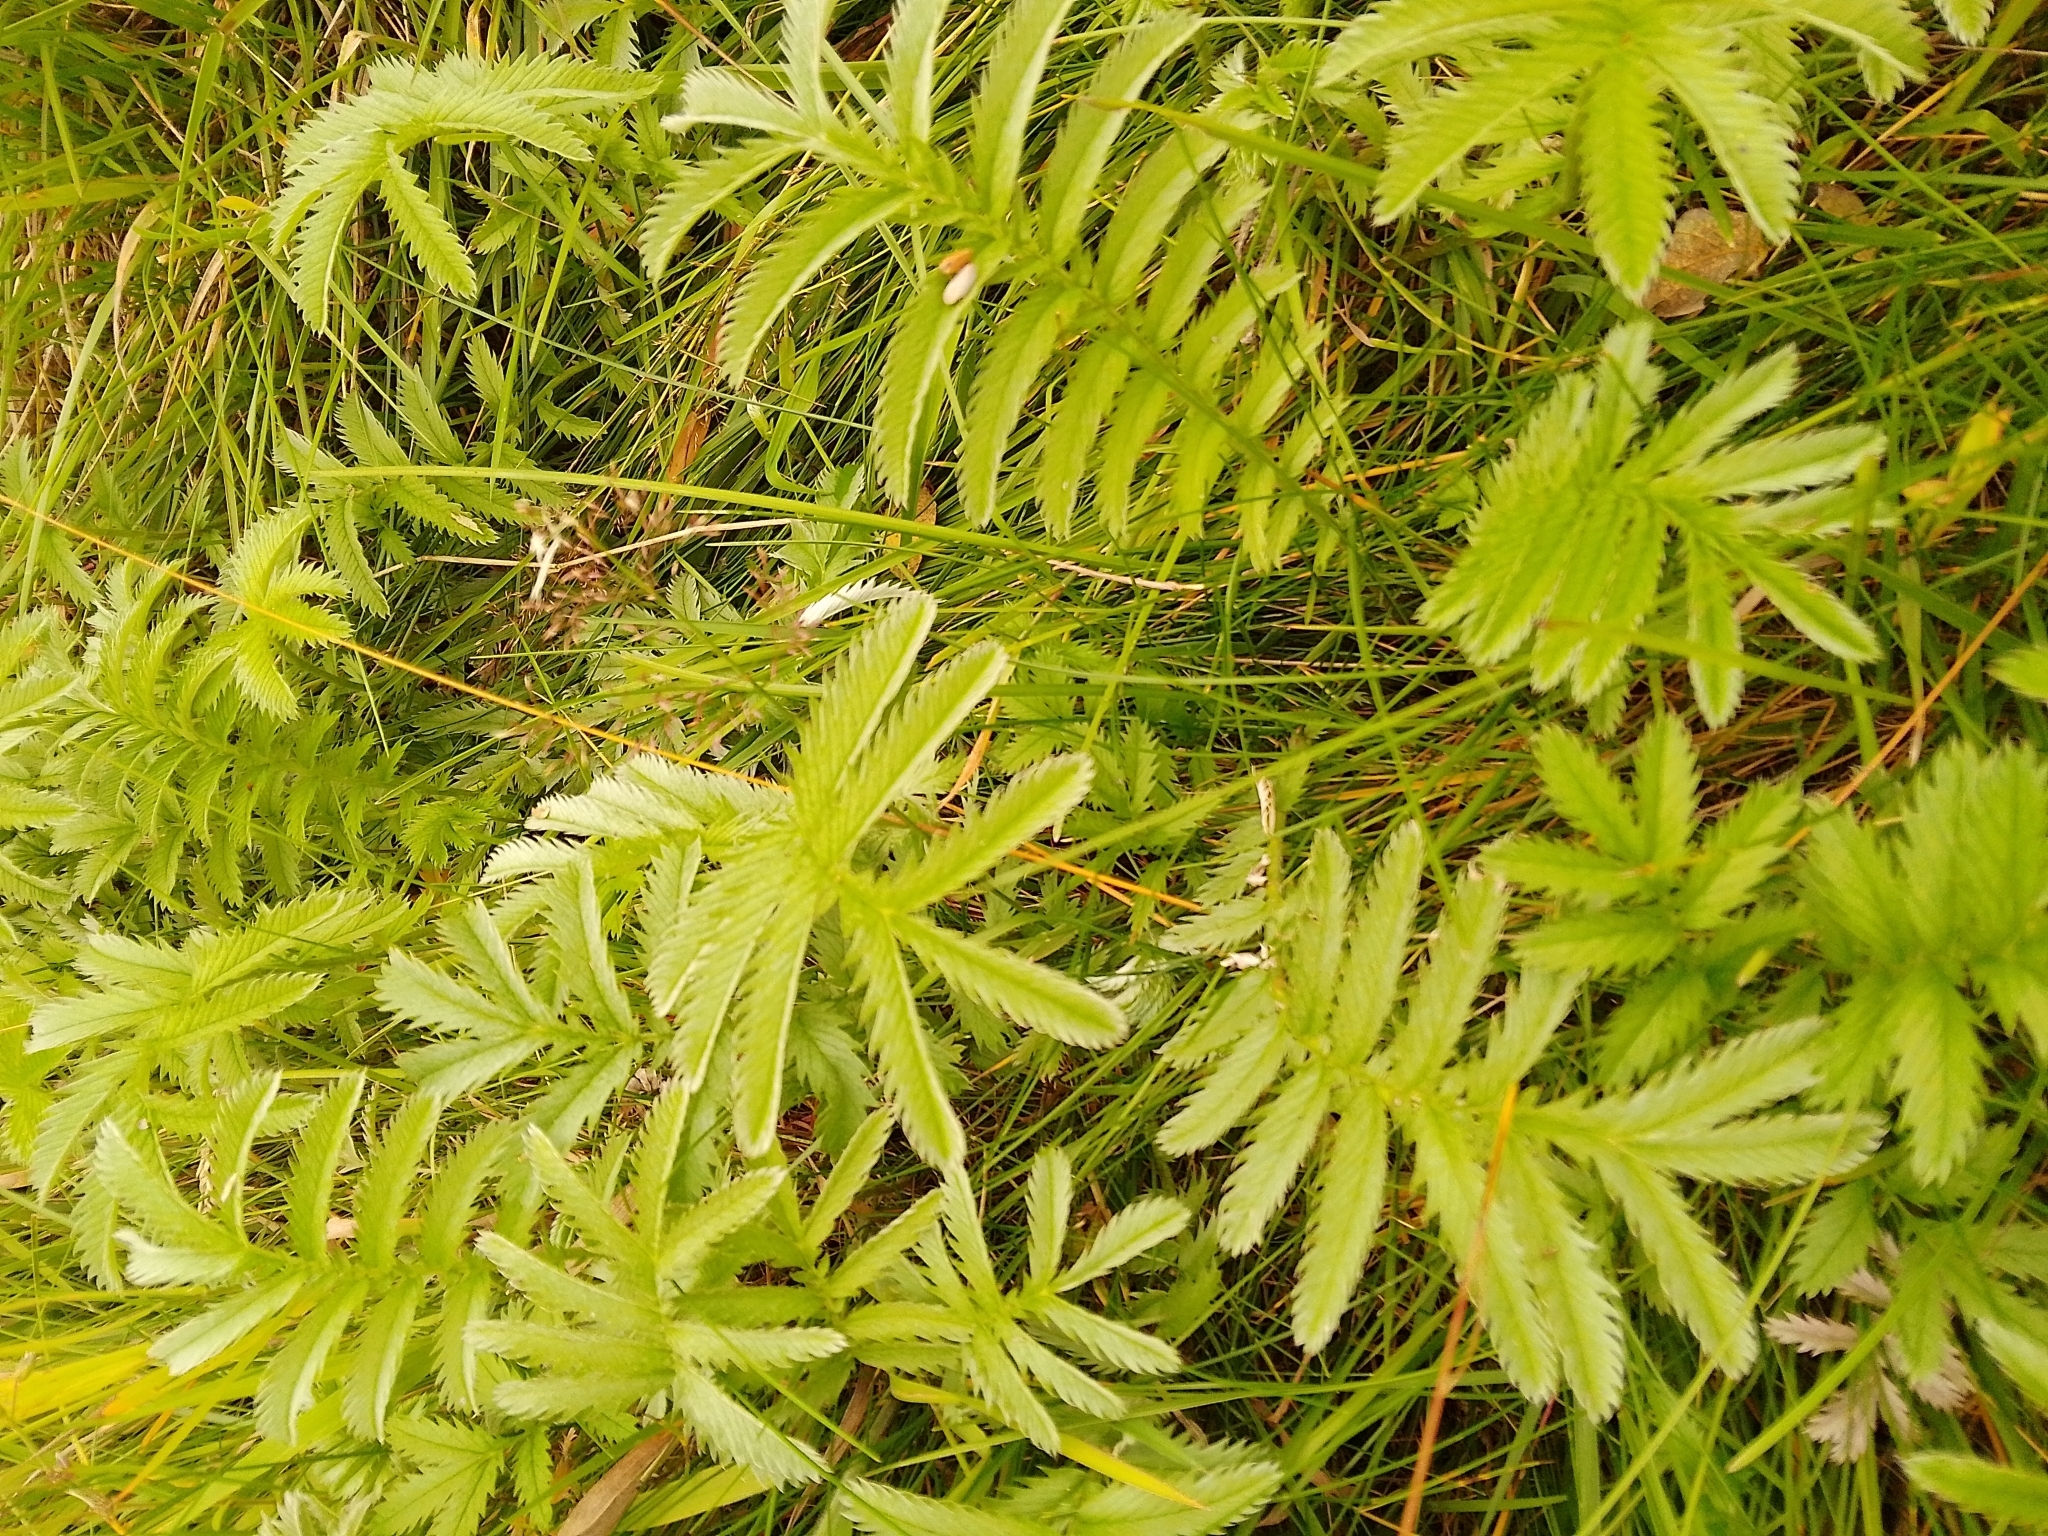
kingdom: Plantae
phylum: Tracheophyta
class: Magnoliopsida
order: Rosales
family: Rosaceae
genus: Argentina
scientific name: Argentina anserina
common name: Common silverweed
